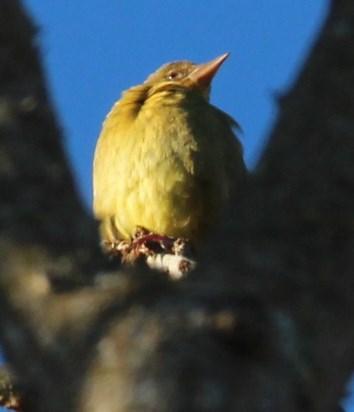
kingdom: Animalia
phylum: Chordata
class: Aves
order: Passeriformes
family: Ploceidae
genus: Ploceus
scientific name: Ploceus capensis
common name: Cape weaver
